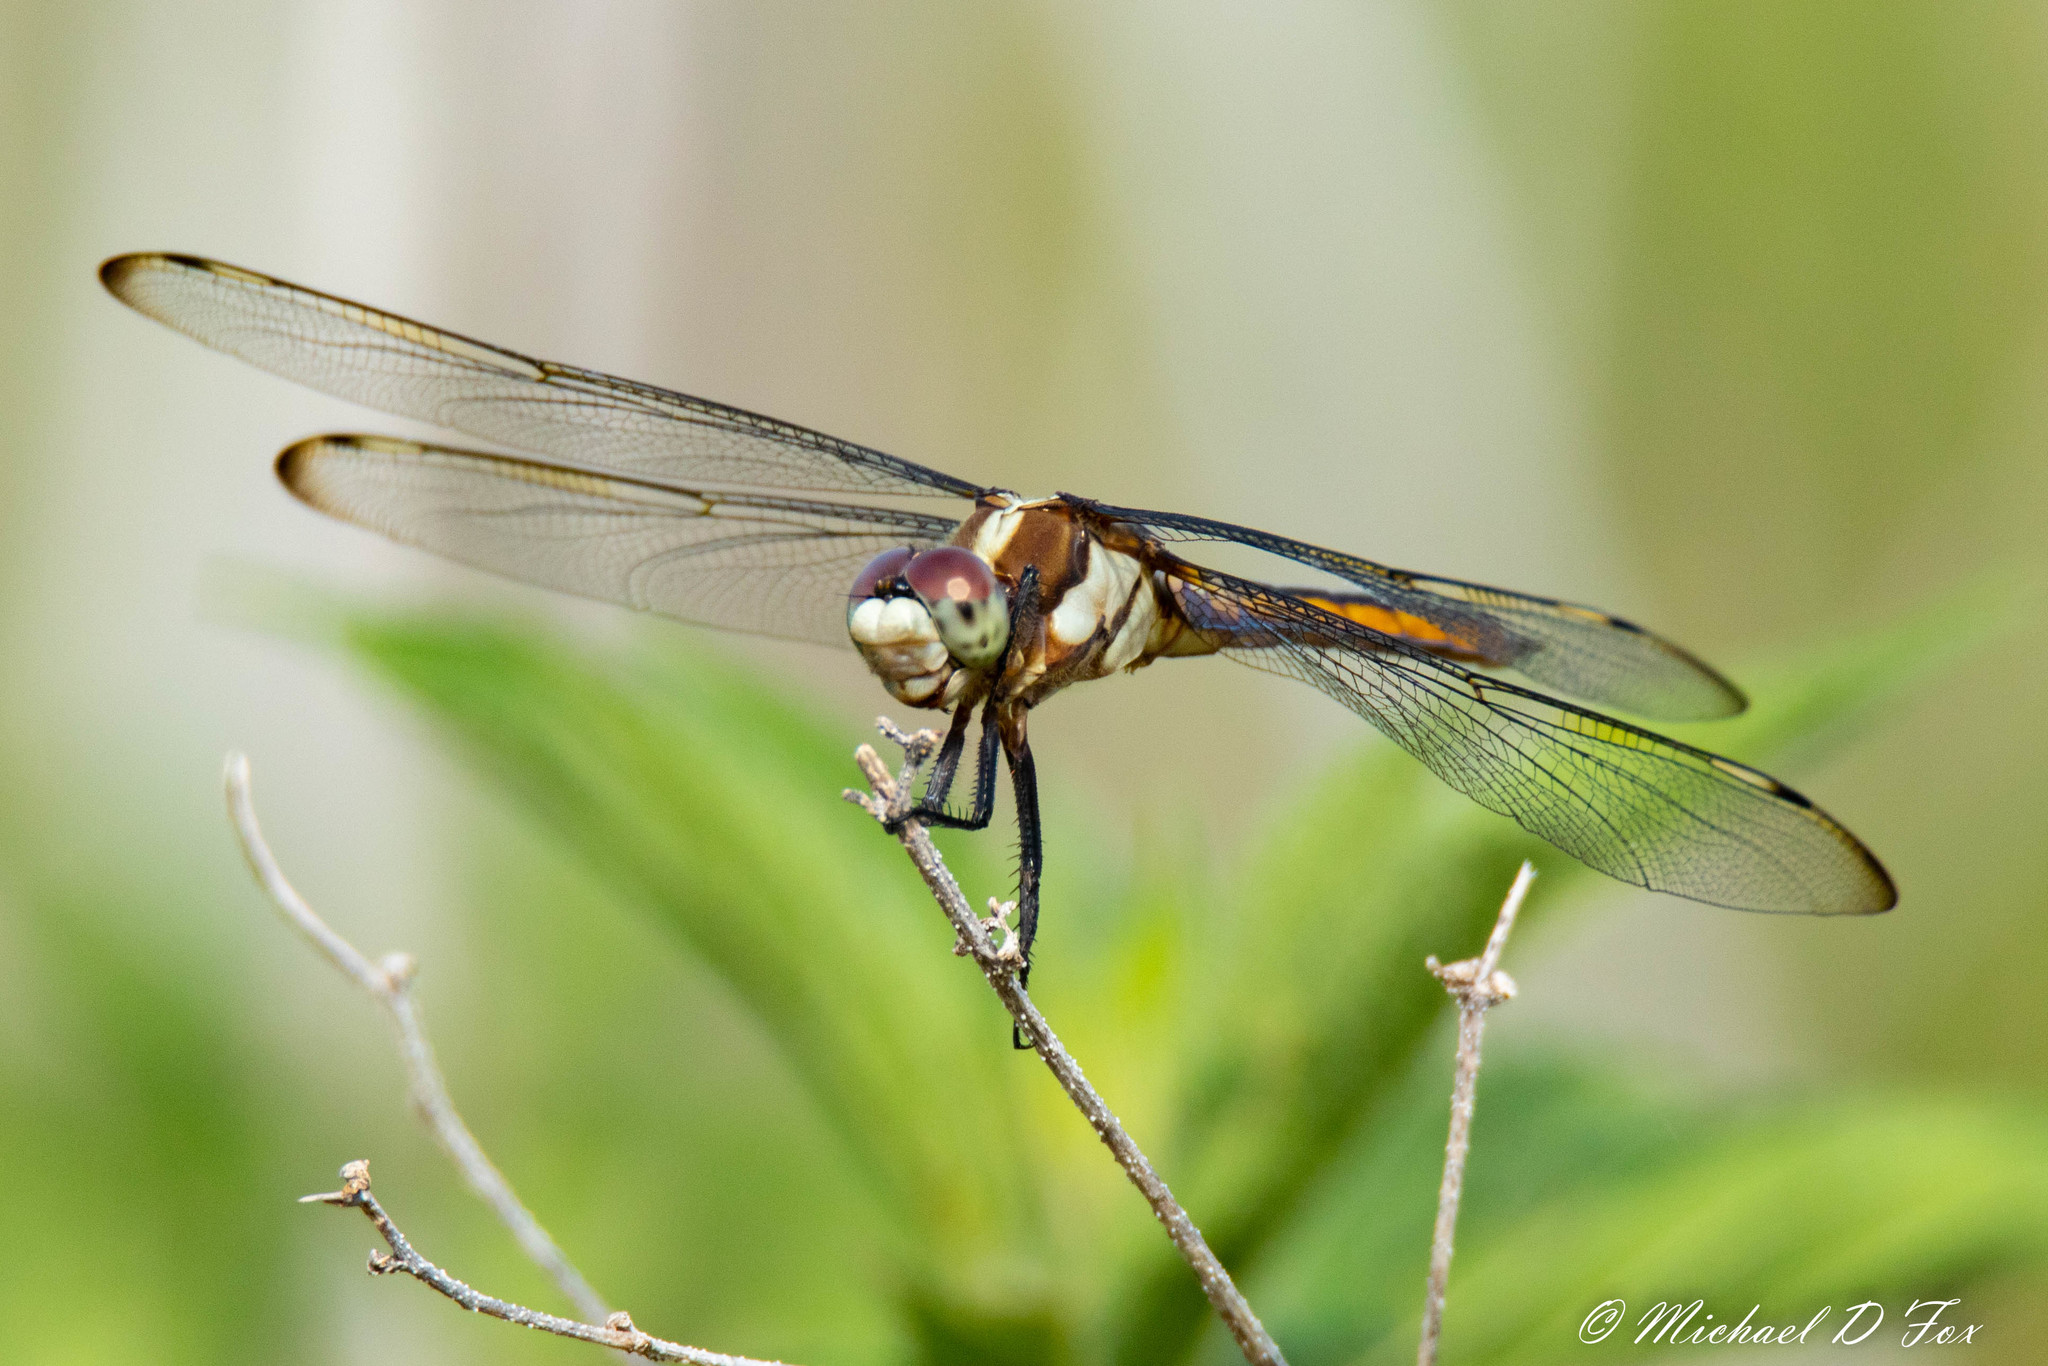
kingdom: Animalia
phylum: Arthropoda
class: Insecta
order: Odonata
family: Libellulidae
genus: Libellula
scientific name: Libellula comanche
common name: Comanche skimmer
